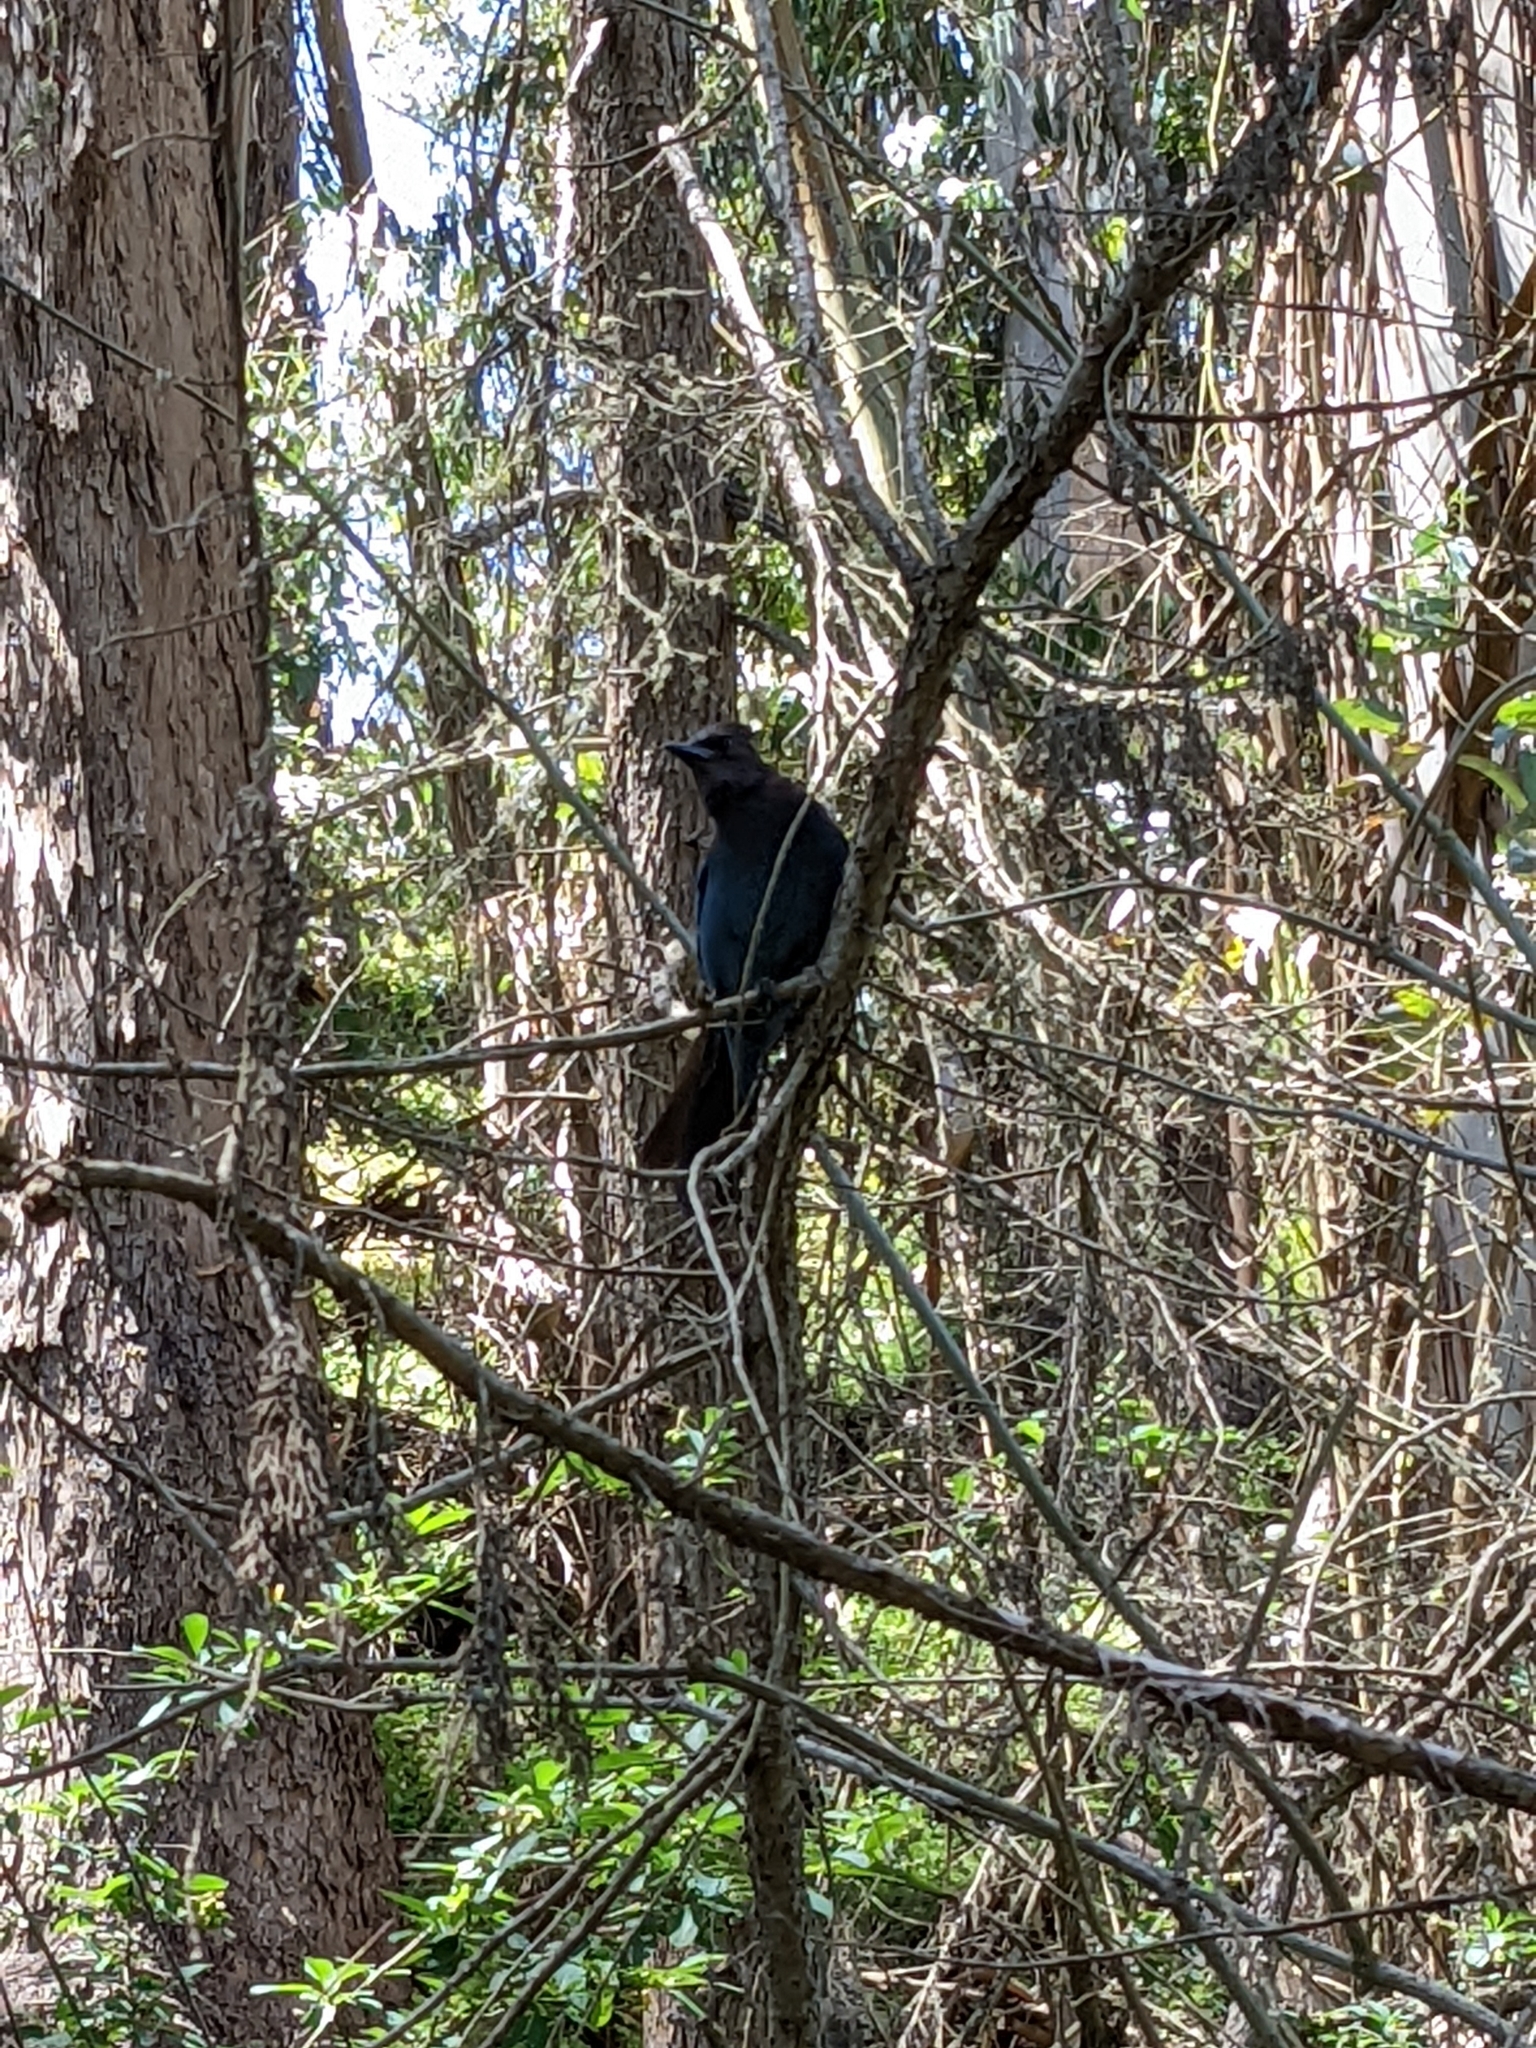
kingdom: Animalia
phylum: Chordata
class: Aves
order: Passeriformes
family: Corvidae
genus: Cyanocitta
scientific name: Cyanocitta stelleri
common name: Steller's jay
